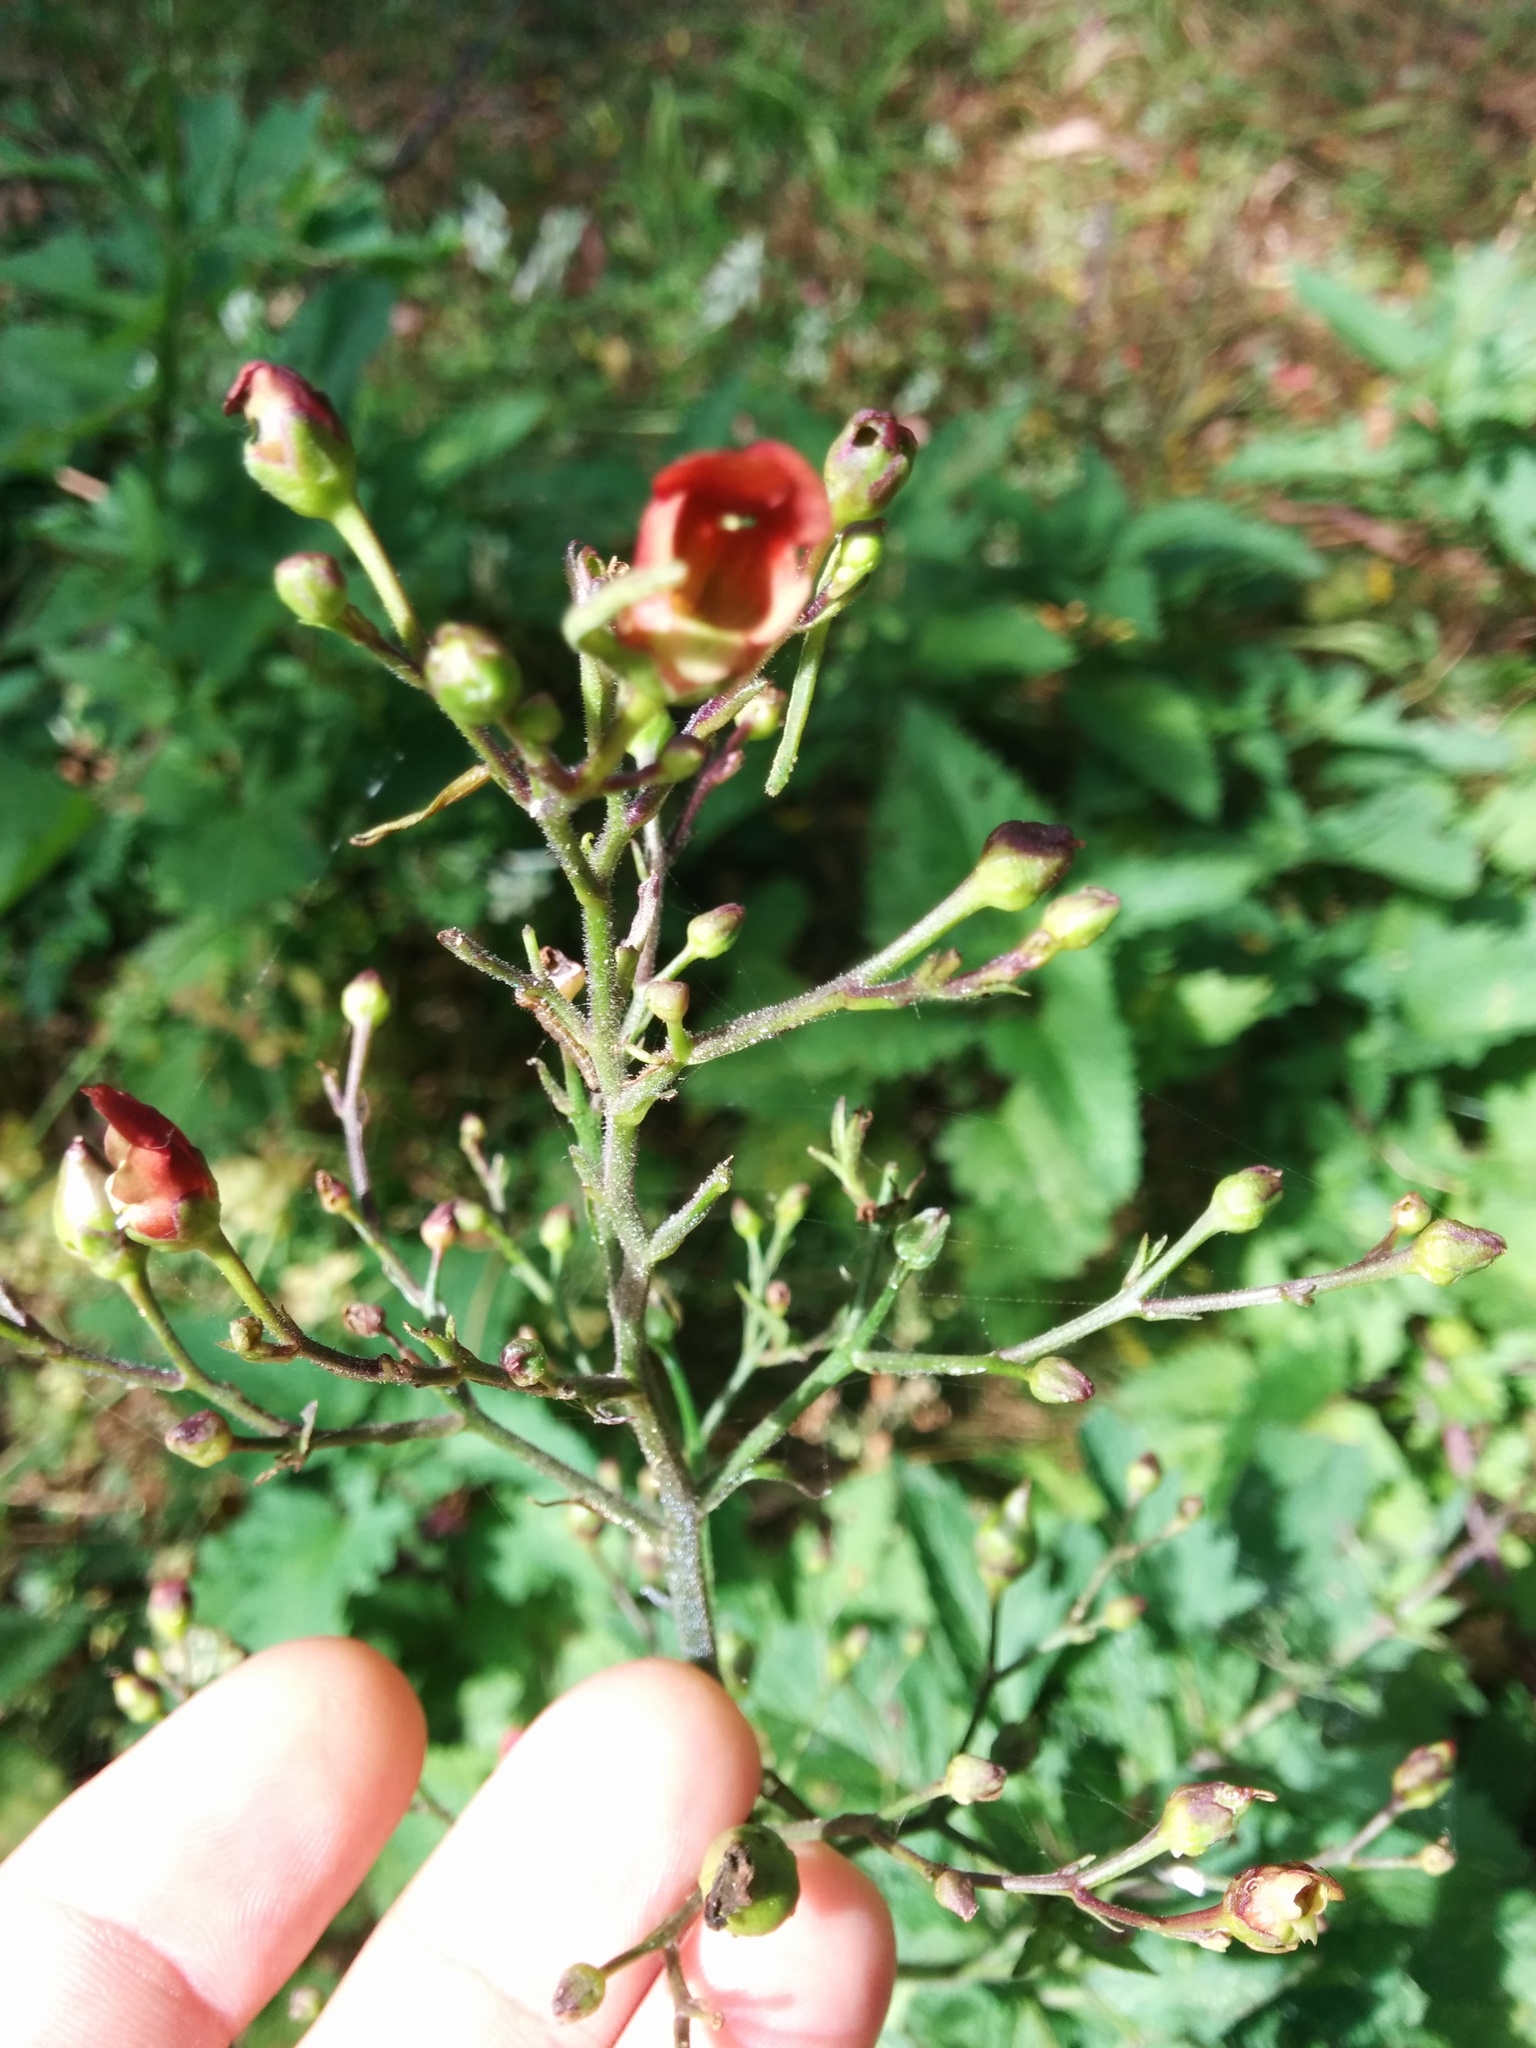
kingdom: Plantae
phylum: Tracheophyta
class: Magnoliopsida
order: Lamiales
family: Scrophulariaceae
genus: Scrophularia
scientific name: Scrophularia californica
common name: California figwort
